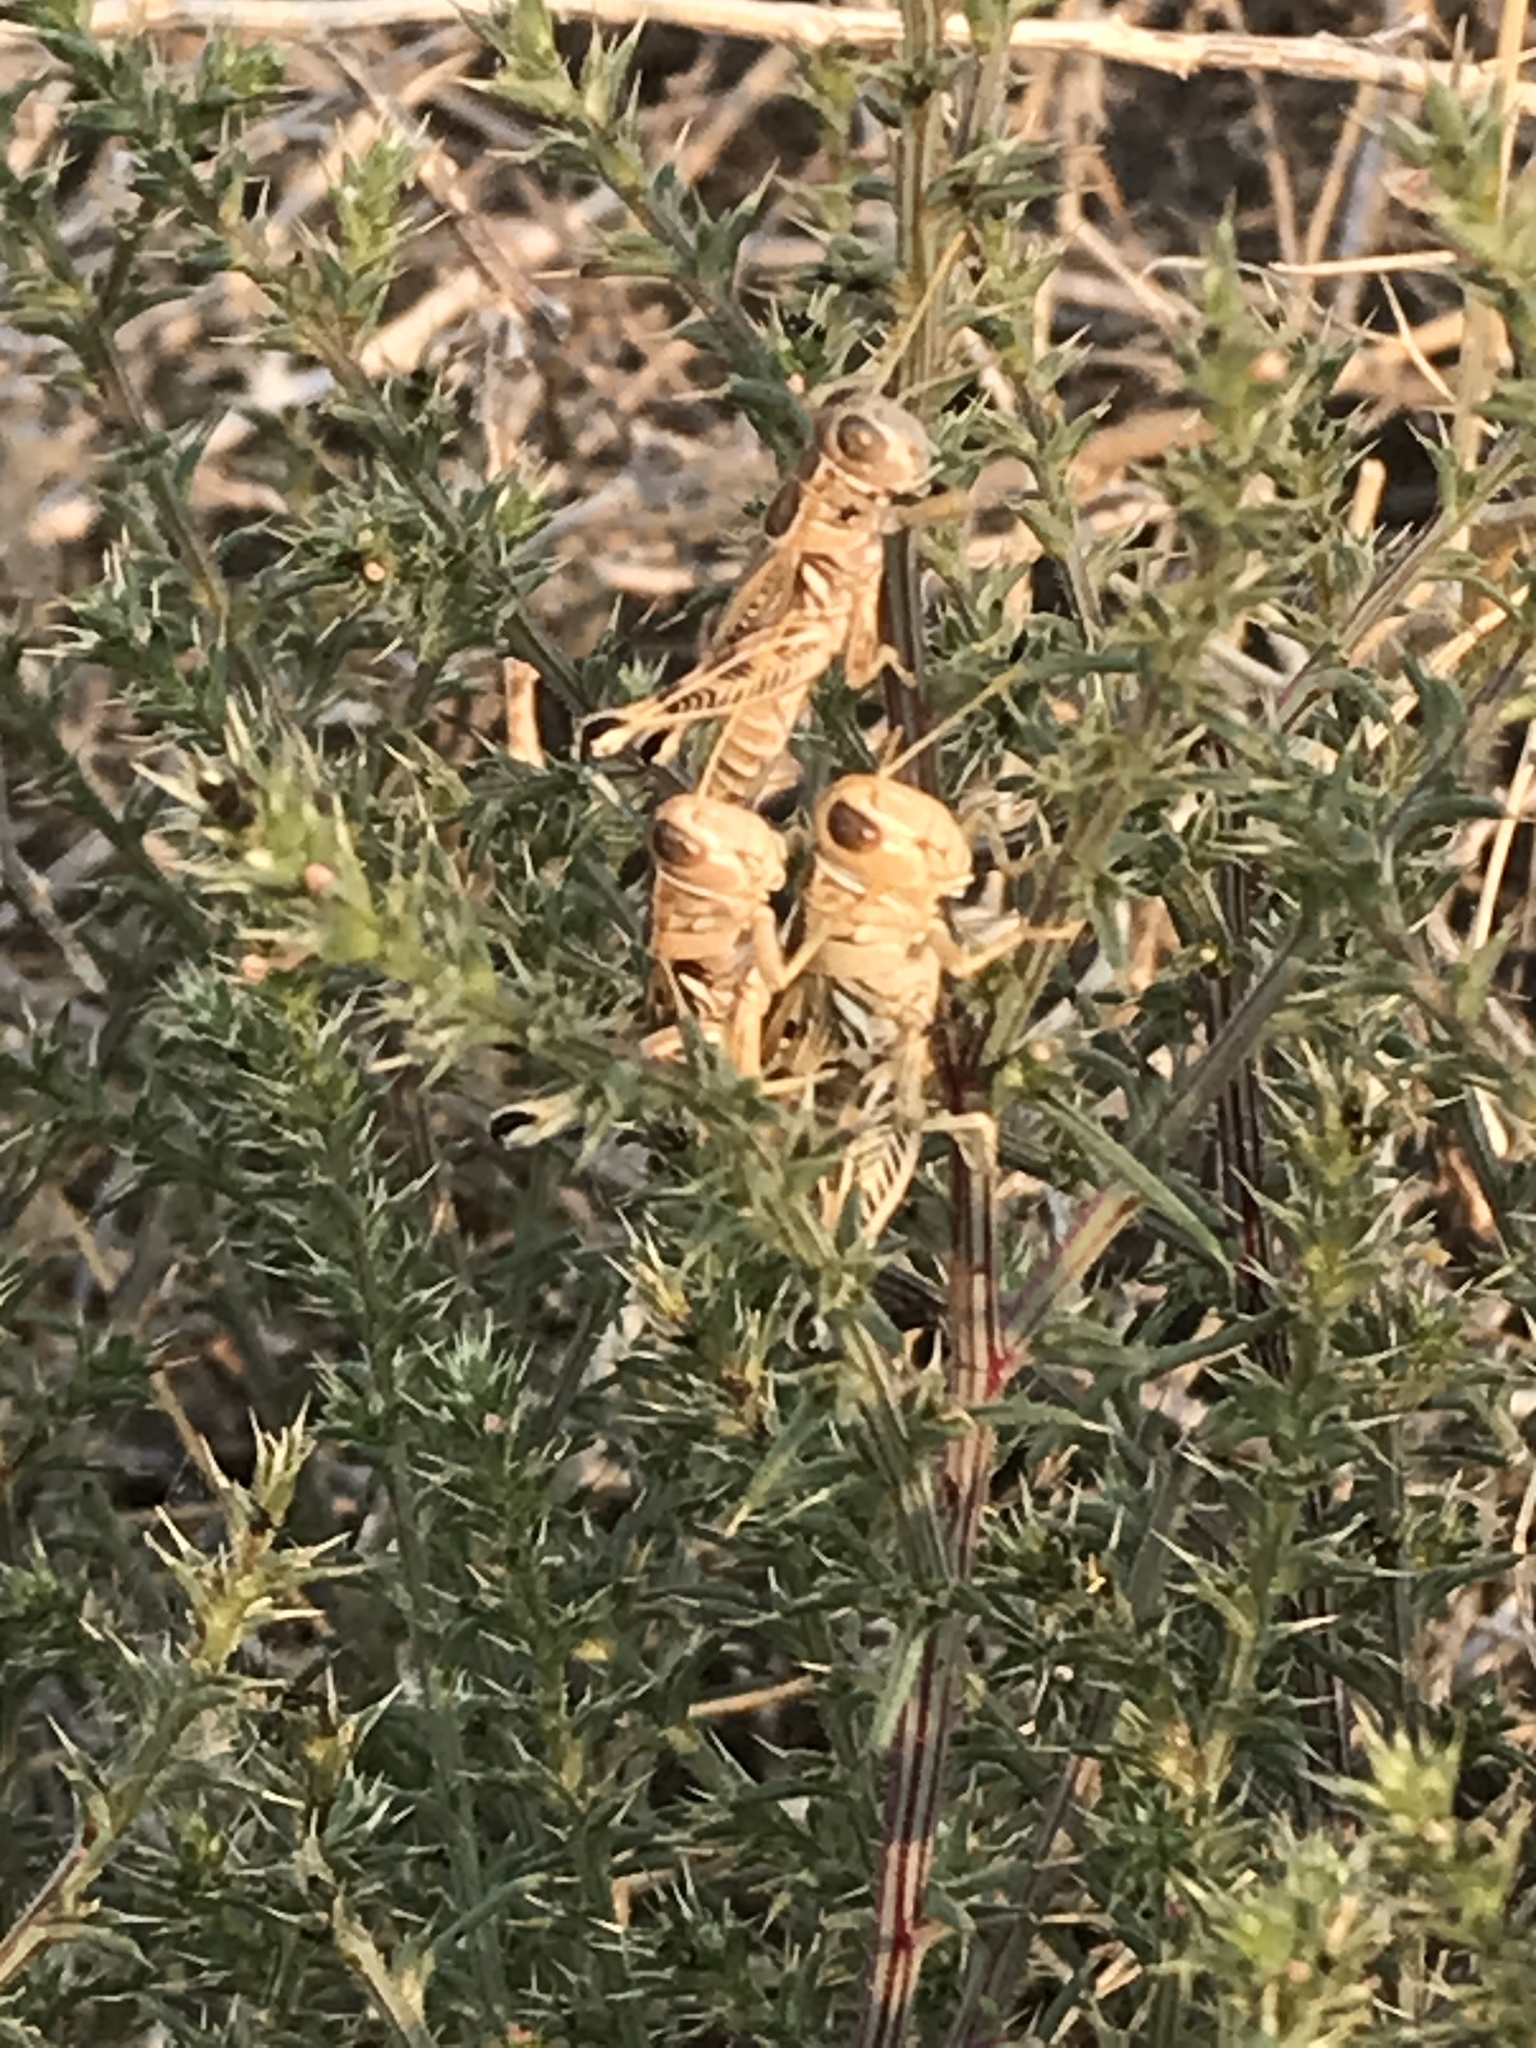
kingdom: Animalia
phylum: Arthropoda
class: Insecta
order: Orthoptera
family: Acrididae
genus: Oedaleonotus
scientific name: Oedaleonotus enigma
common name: Valley grasshopper
